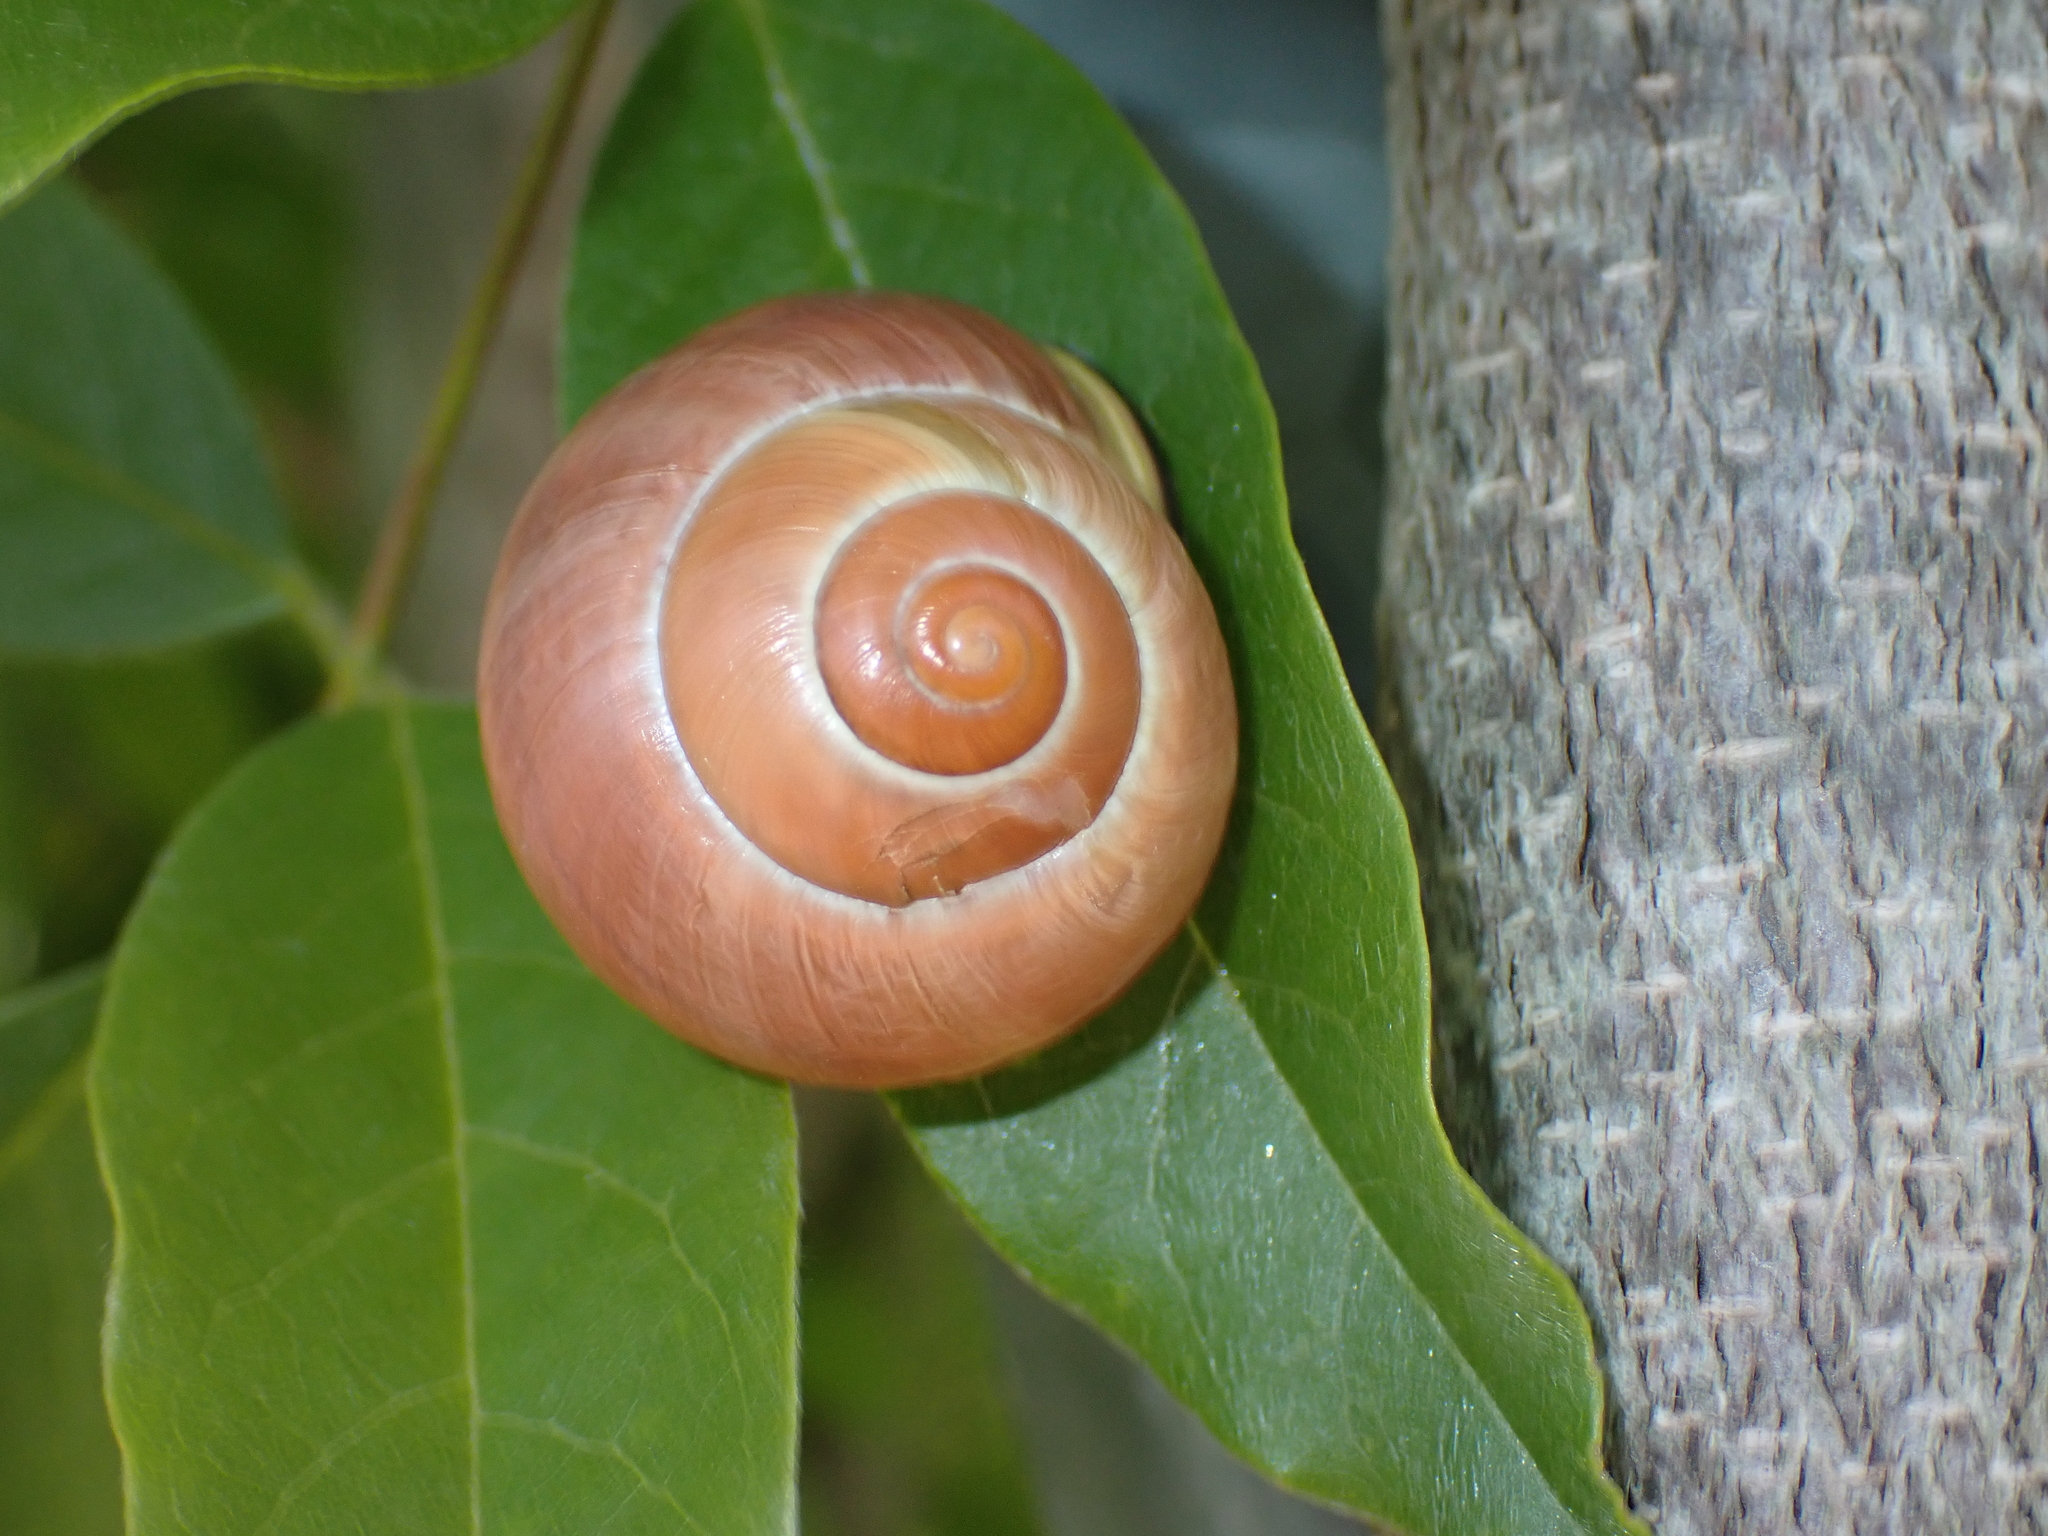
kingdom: Animalia
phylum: Mollusca
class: Gastropoda
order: Stylommatophora
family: Helicidae
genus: Cepaea
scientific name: Cepaea hortensis
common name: White-lip gardensnail
